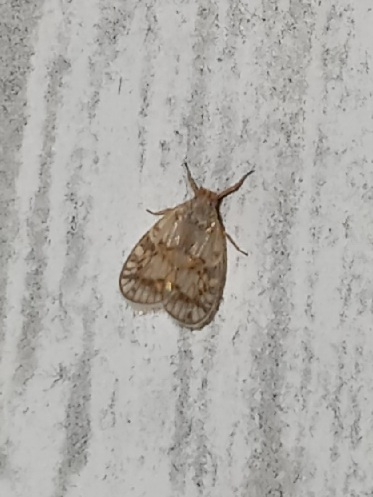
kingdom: Animalia
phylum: Arthropoda
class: Insecta
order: Hemiptera
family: Cixiidae
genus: Bothriocera
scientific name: Bothriocera drakei
